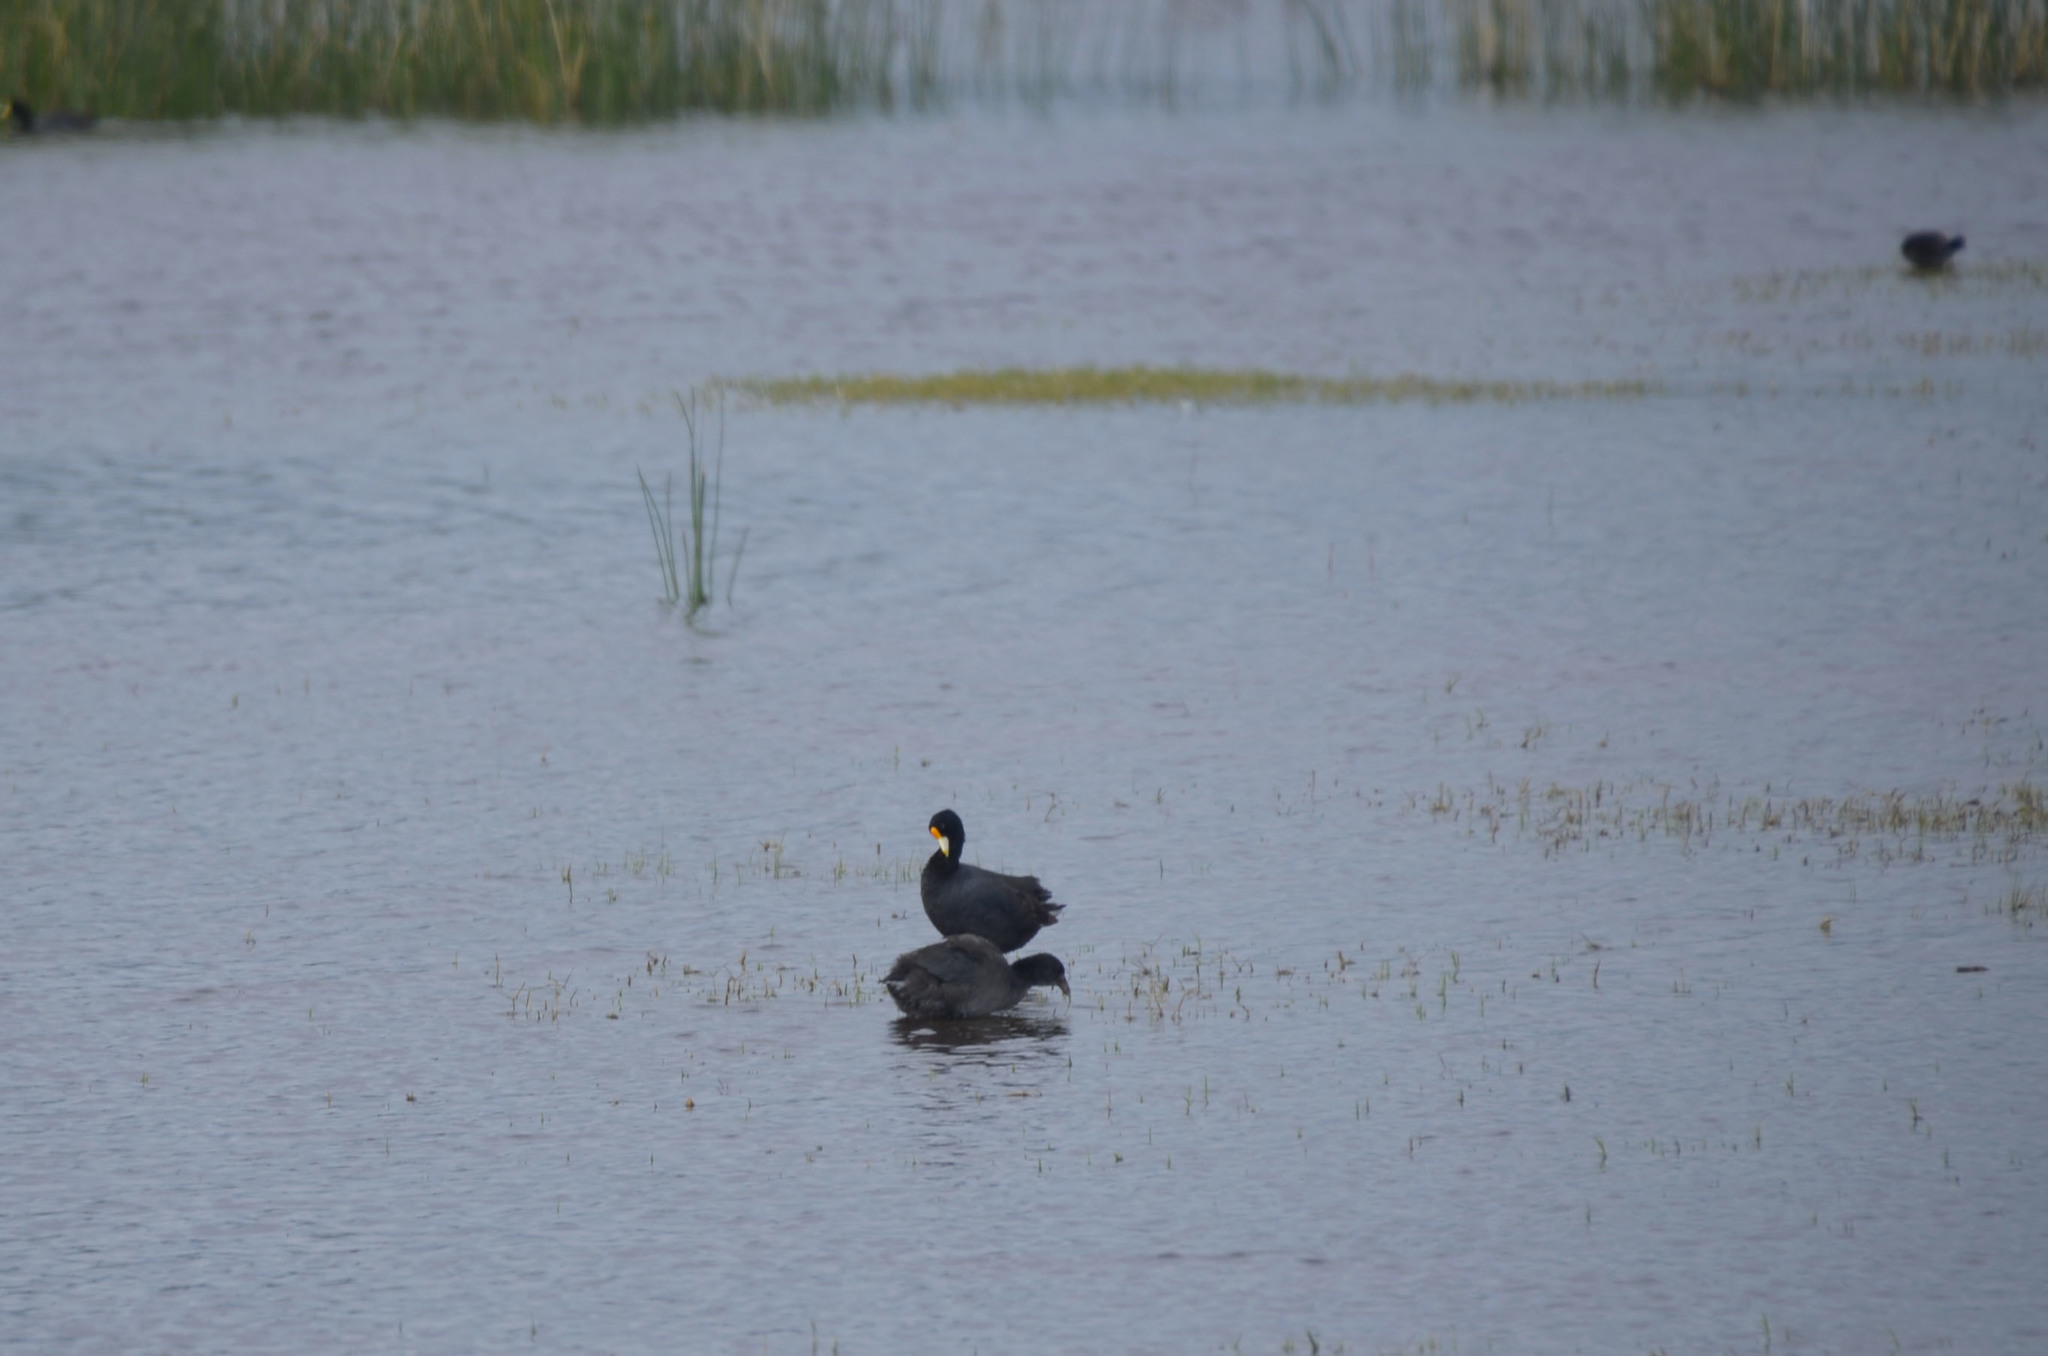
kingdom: Animalia
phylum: Chordata
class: Aves
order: Gruiformes
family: Rallidae
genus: Fulica
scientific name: Fulica leucoptera
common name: White-winged coot
